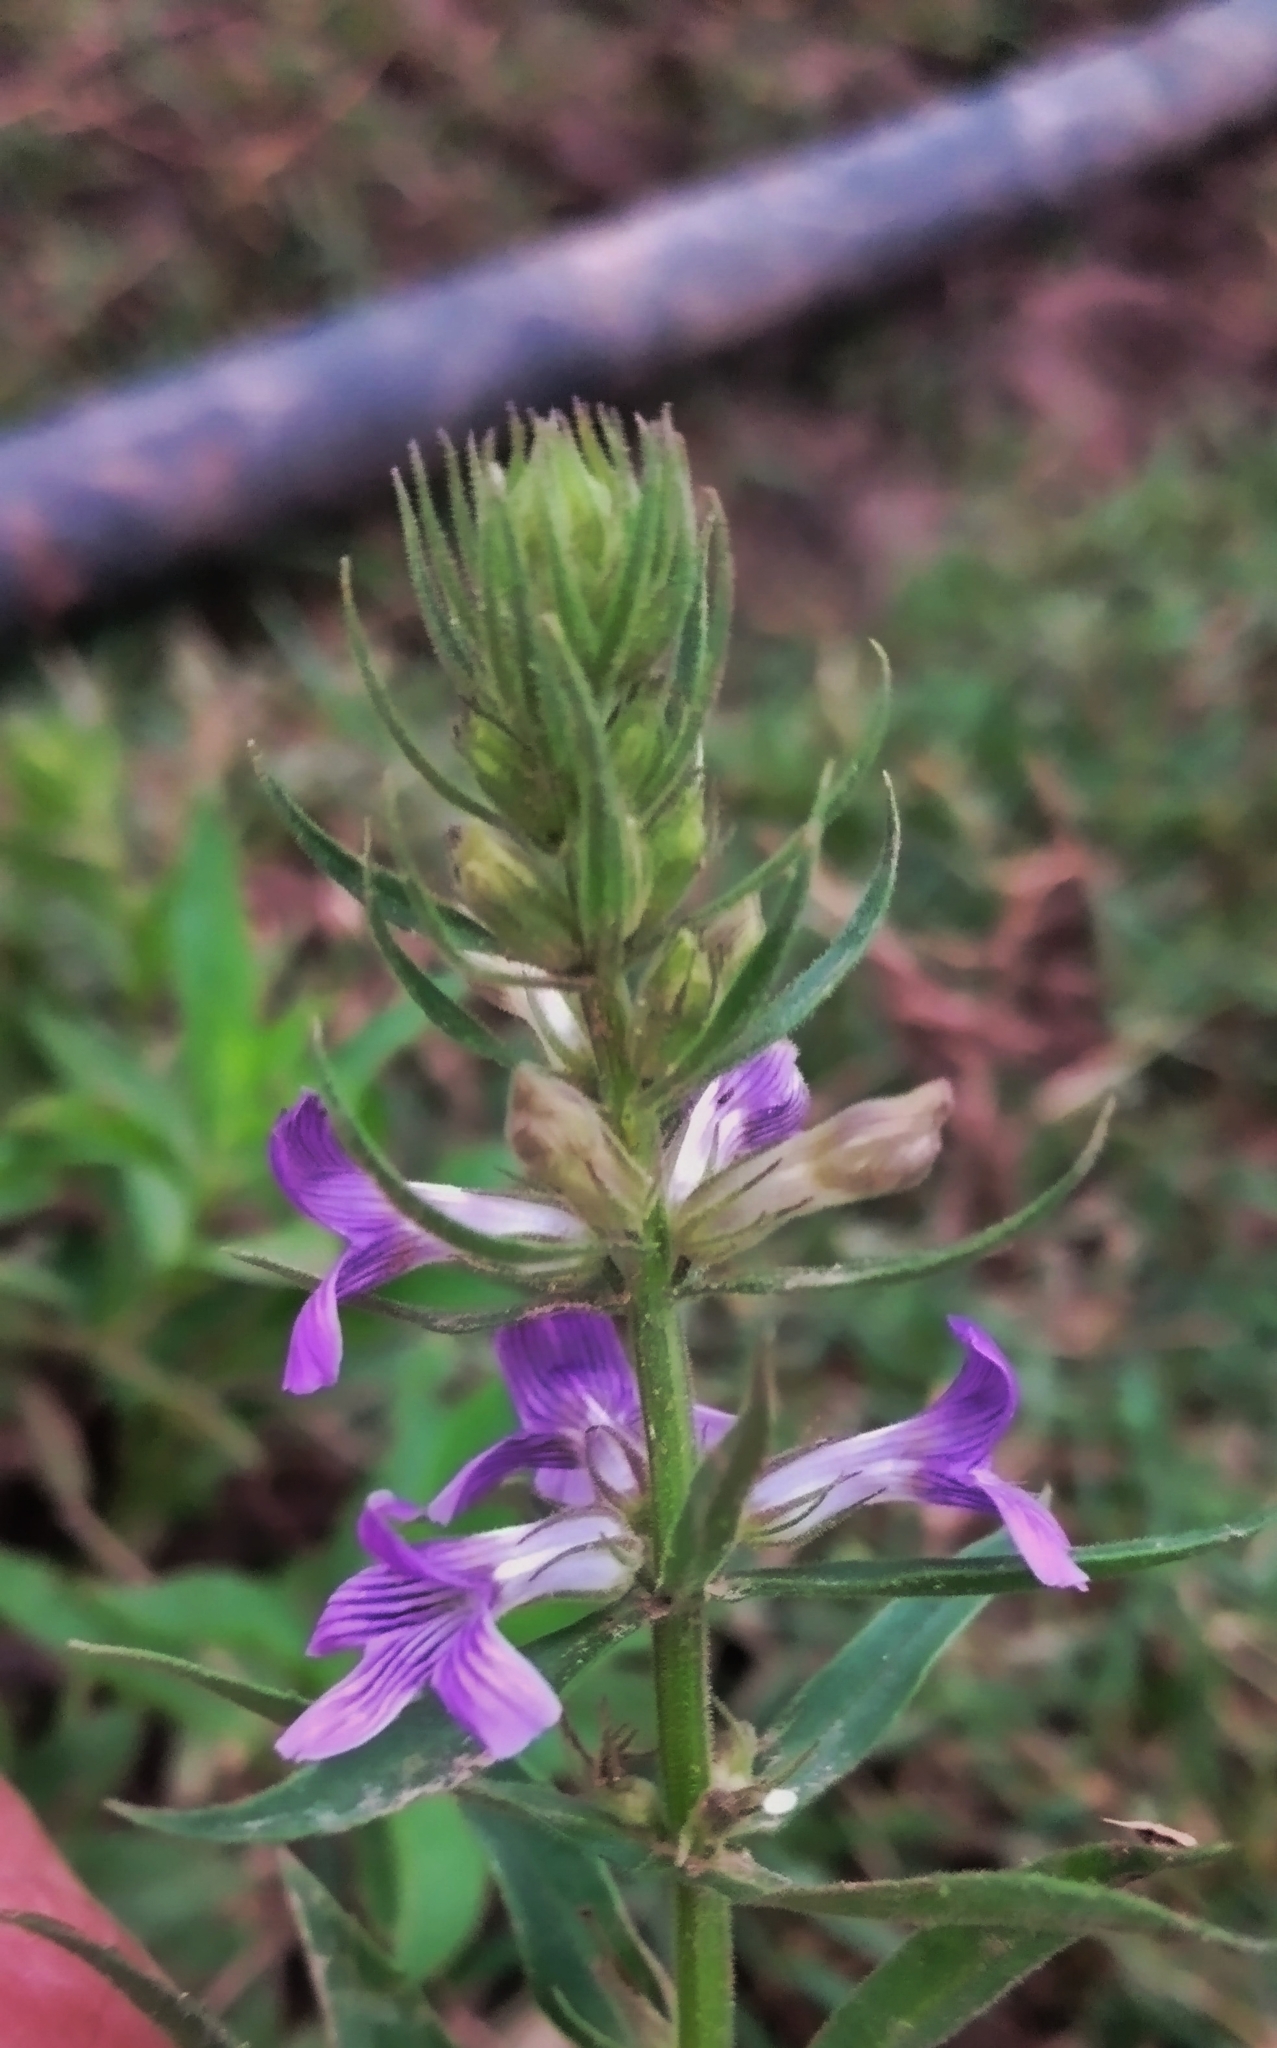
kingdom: Plantae
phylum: Tracheophyta
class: Magnoliopsida
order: Lamiales
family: Plantaginaceae
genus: Stemodia
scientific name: Stemodia lanceolata
